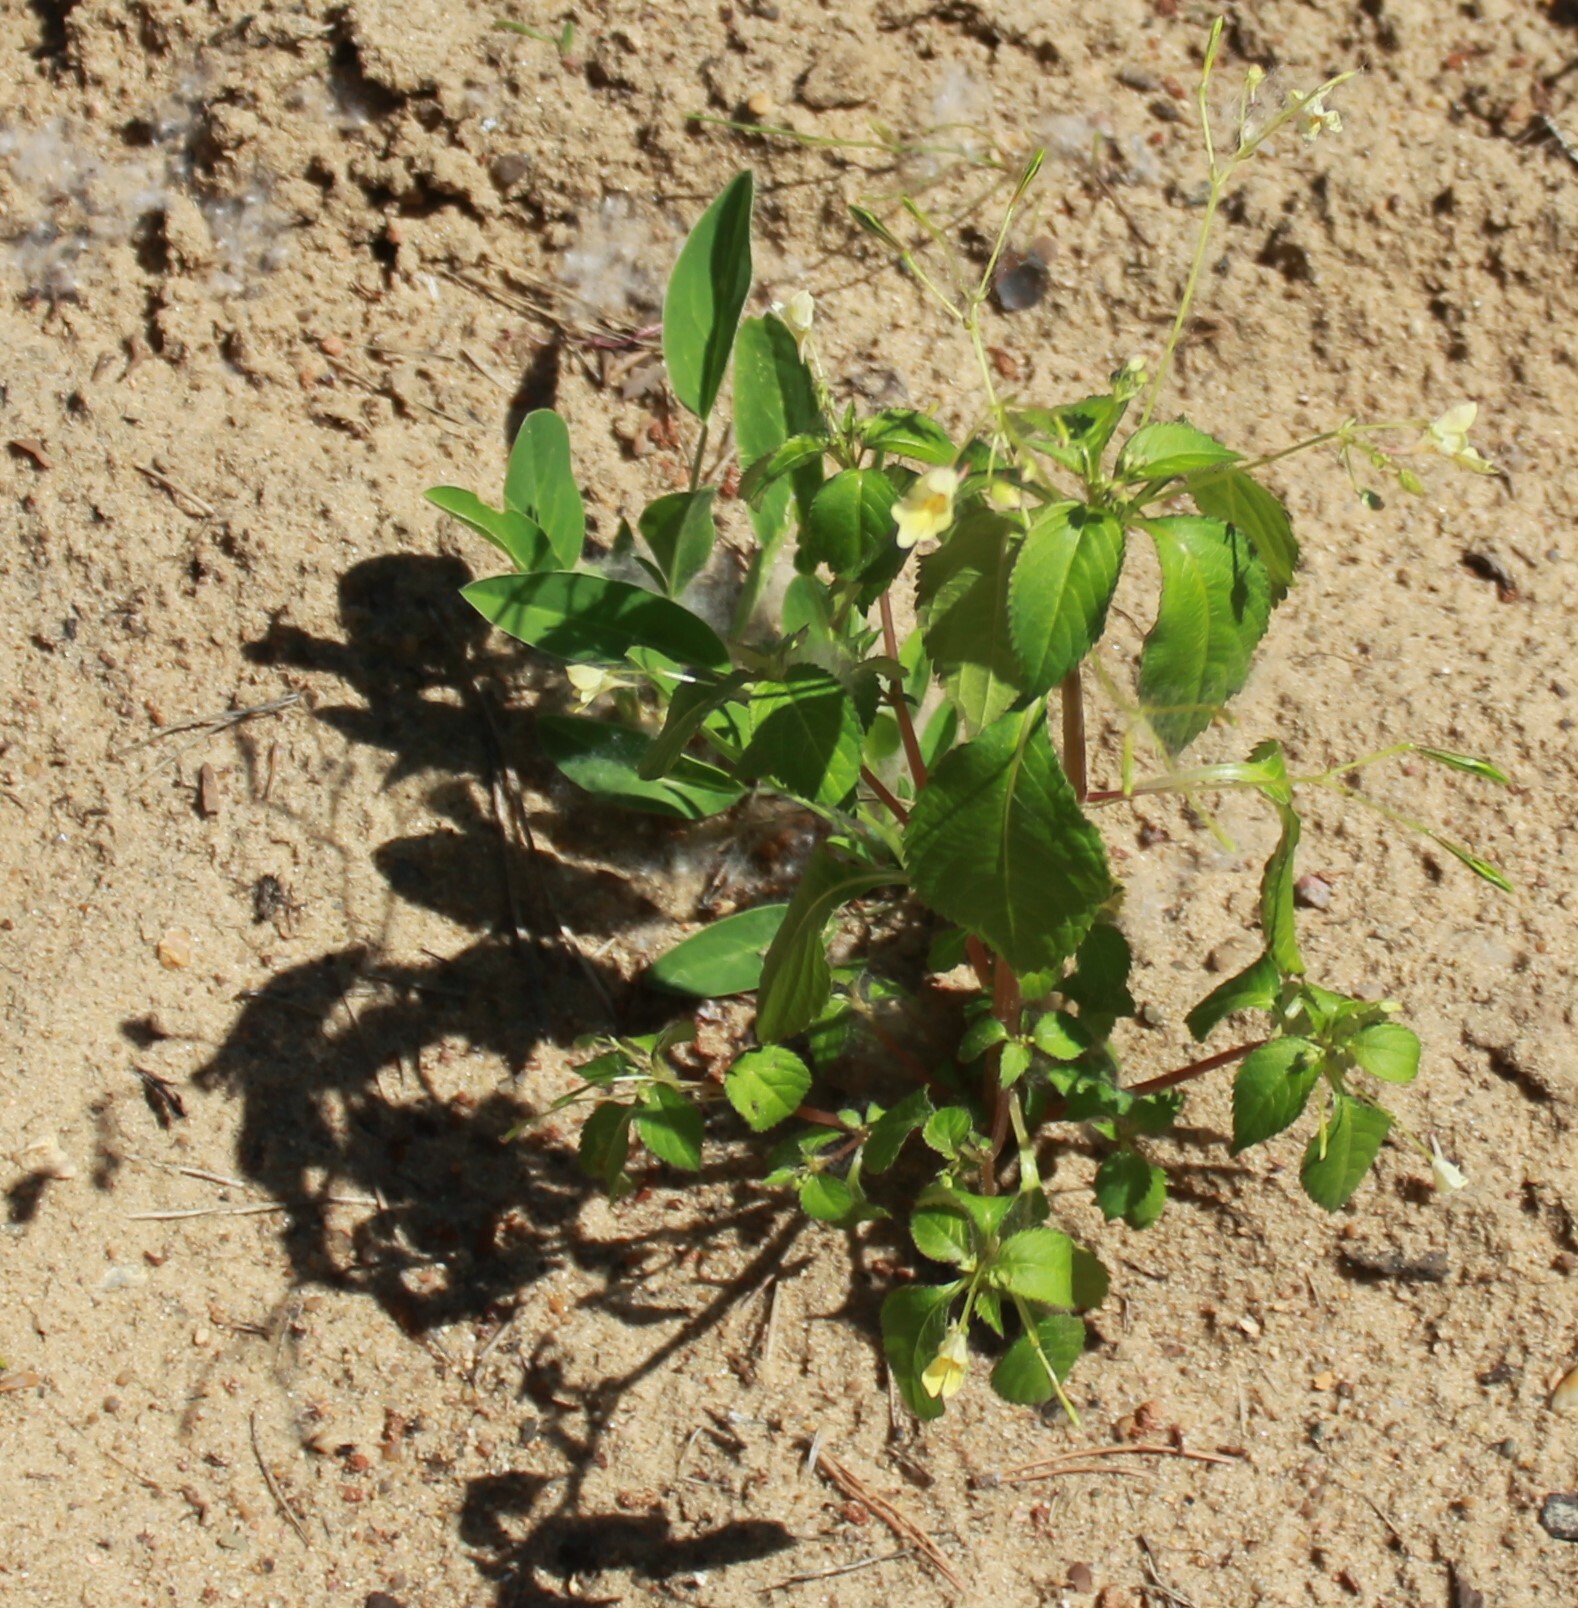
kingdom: Plantae
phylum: Tracheophyta
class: Magnoliopsida
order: Ericales
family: Balsaminaceae
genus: Impatiens
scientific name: Impatiens parviflora
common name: Small balsam
